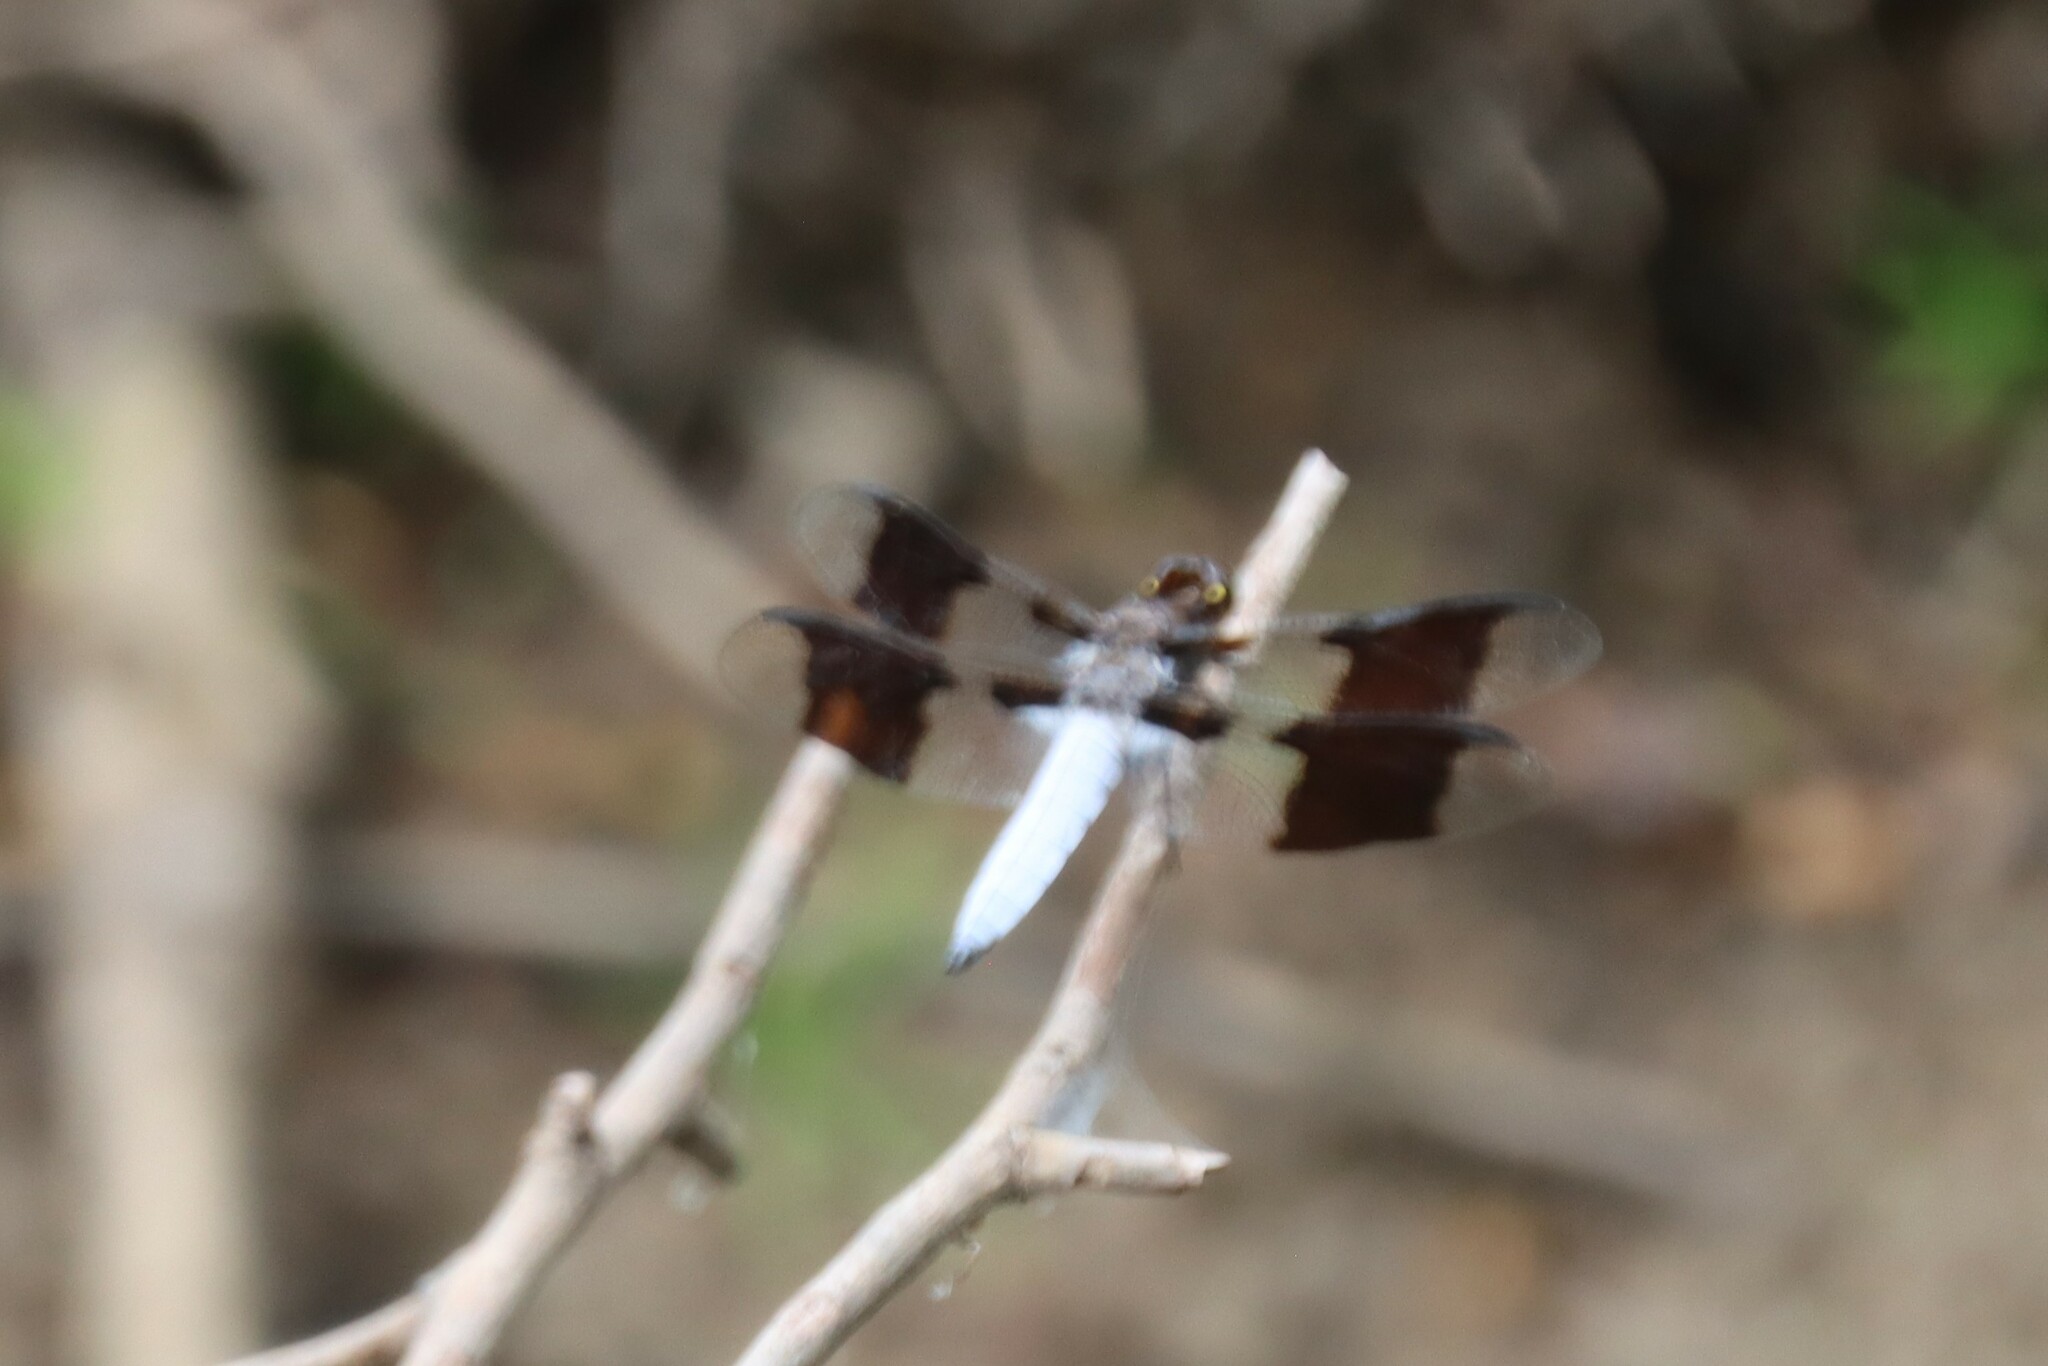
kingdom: Animalia
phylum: Arthropoda
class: Insecta
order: Odonata
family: Libellulidae
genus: Plathemis
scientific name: Plathemis lydia
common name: Common whitetail
